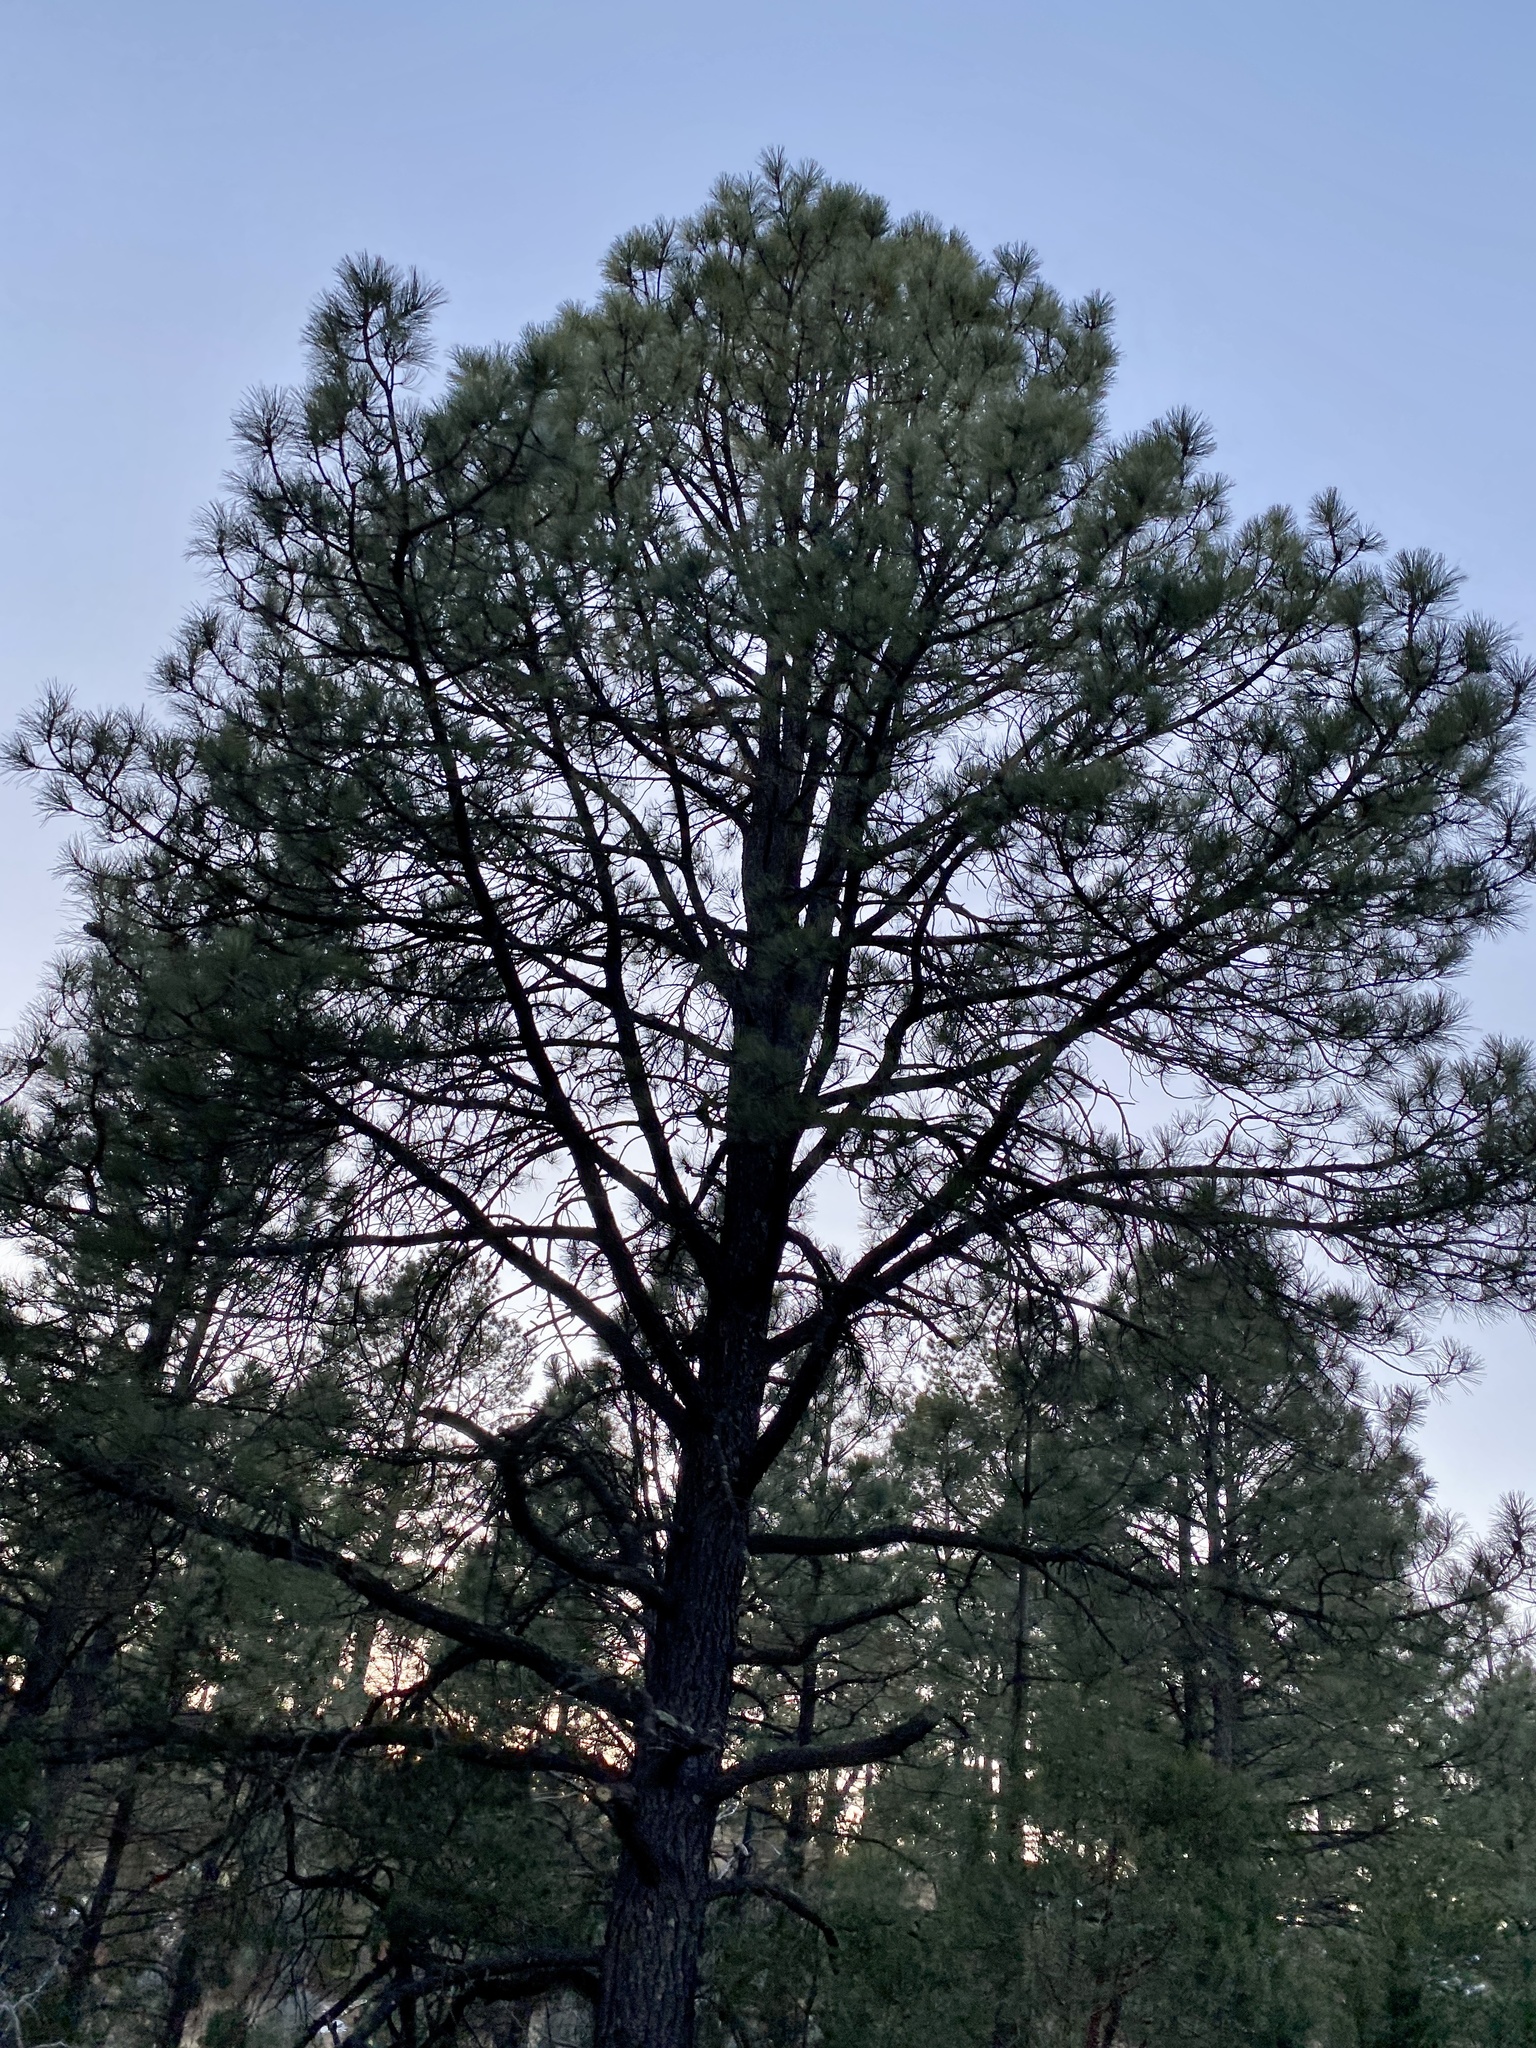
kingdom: Plantae
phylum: Tracheophyta
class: Pinopsida
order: Pinales
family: Pinaceae
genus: Pinus
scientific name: Pinus ponderosa
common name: Western yellow-pine
